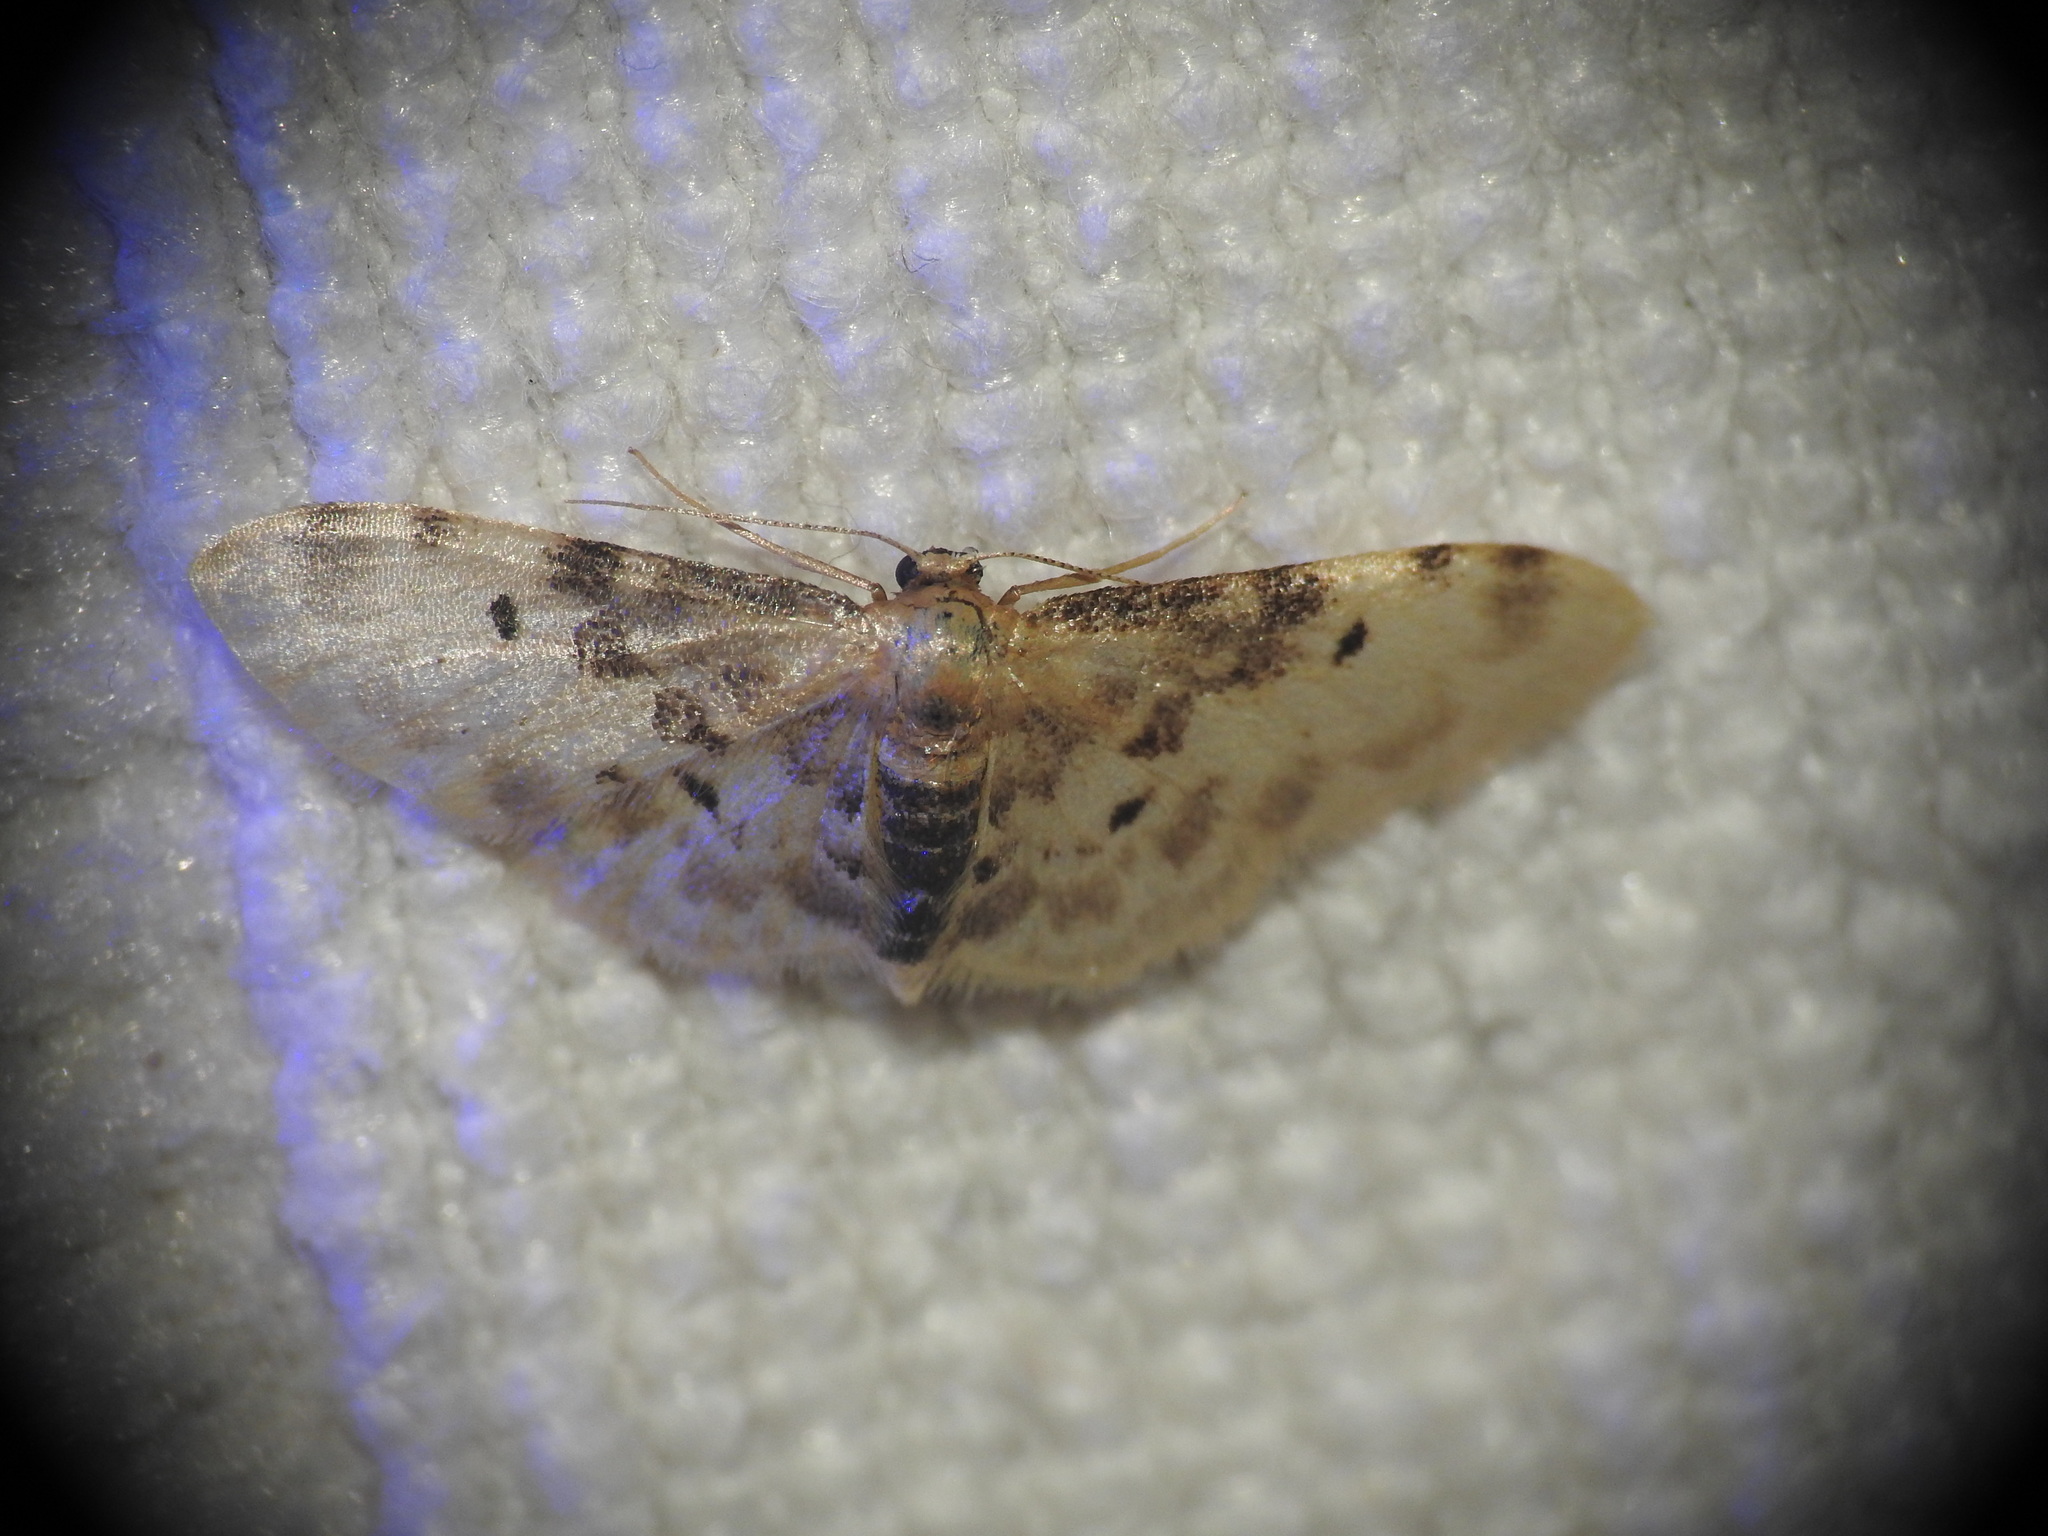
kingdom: Animalia
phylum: Arthropoda
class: Insecta
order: Lepidoptera
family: Geometridae
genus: Idaea
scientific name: Idaea filicata
